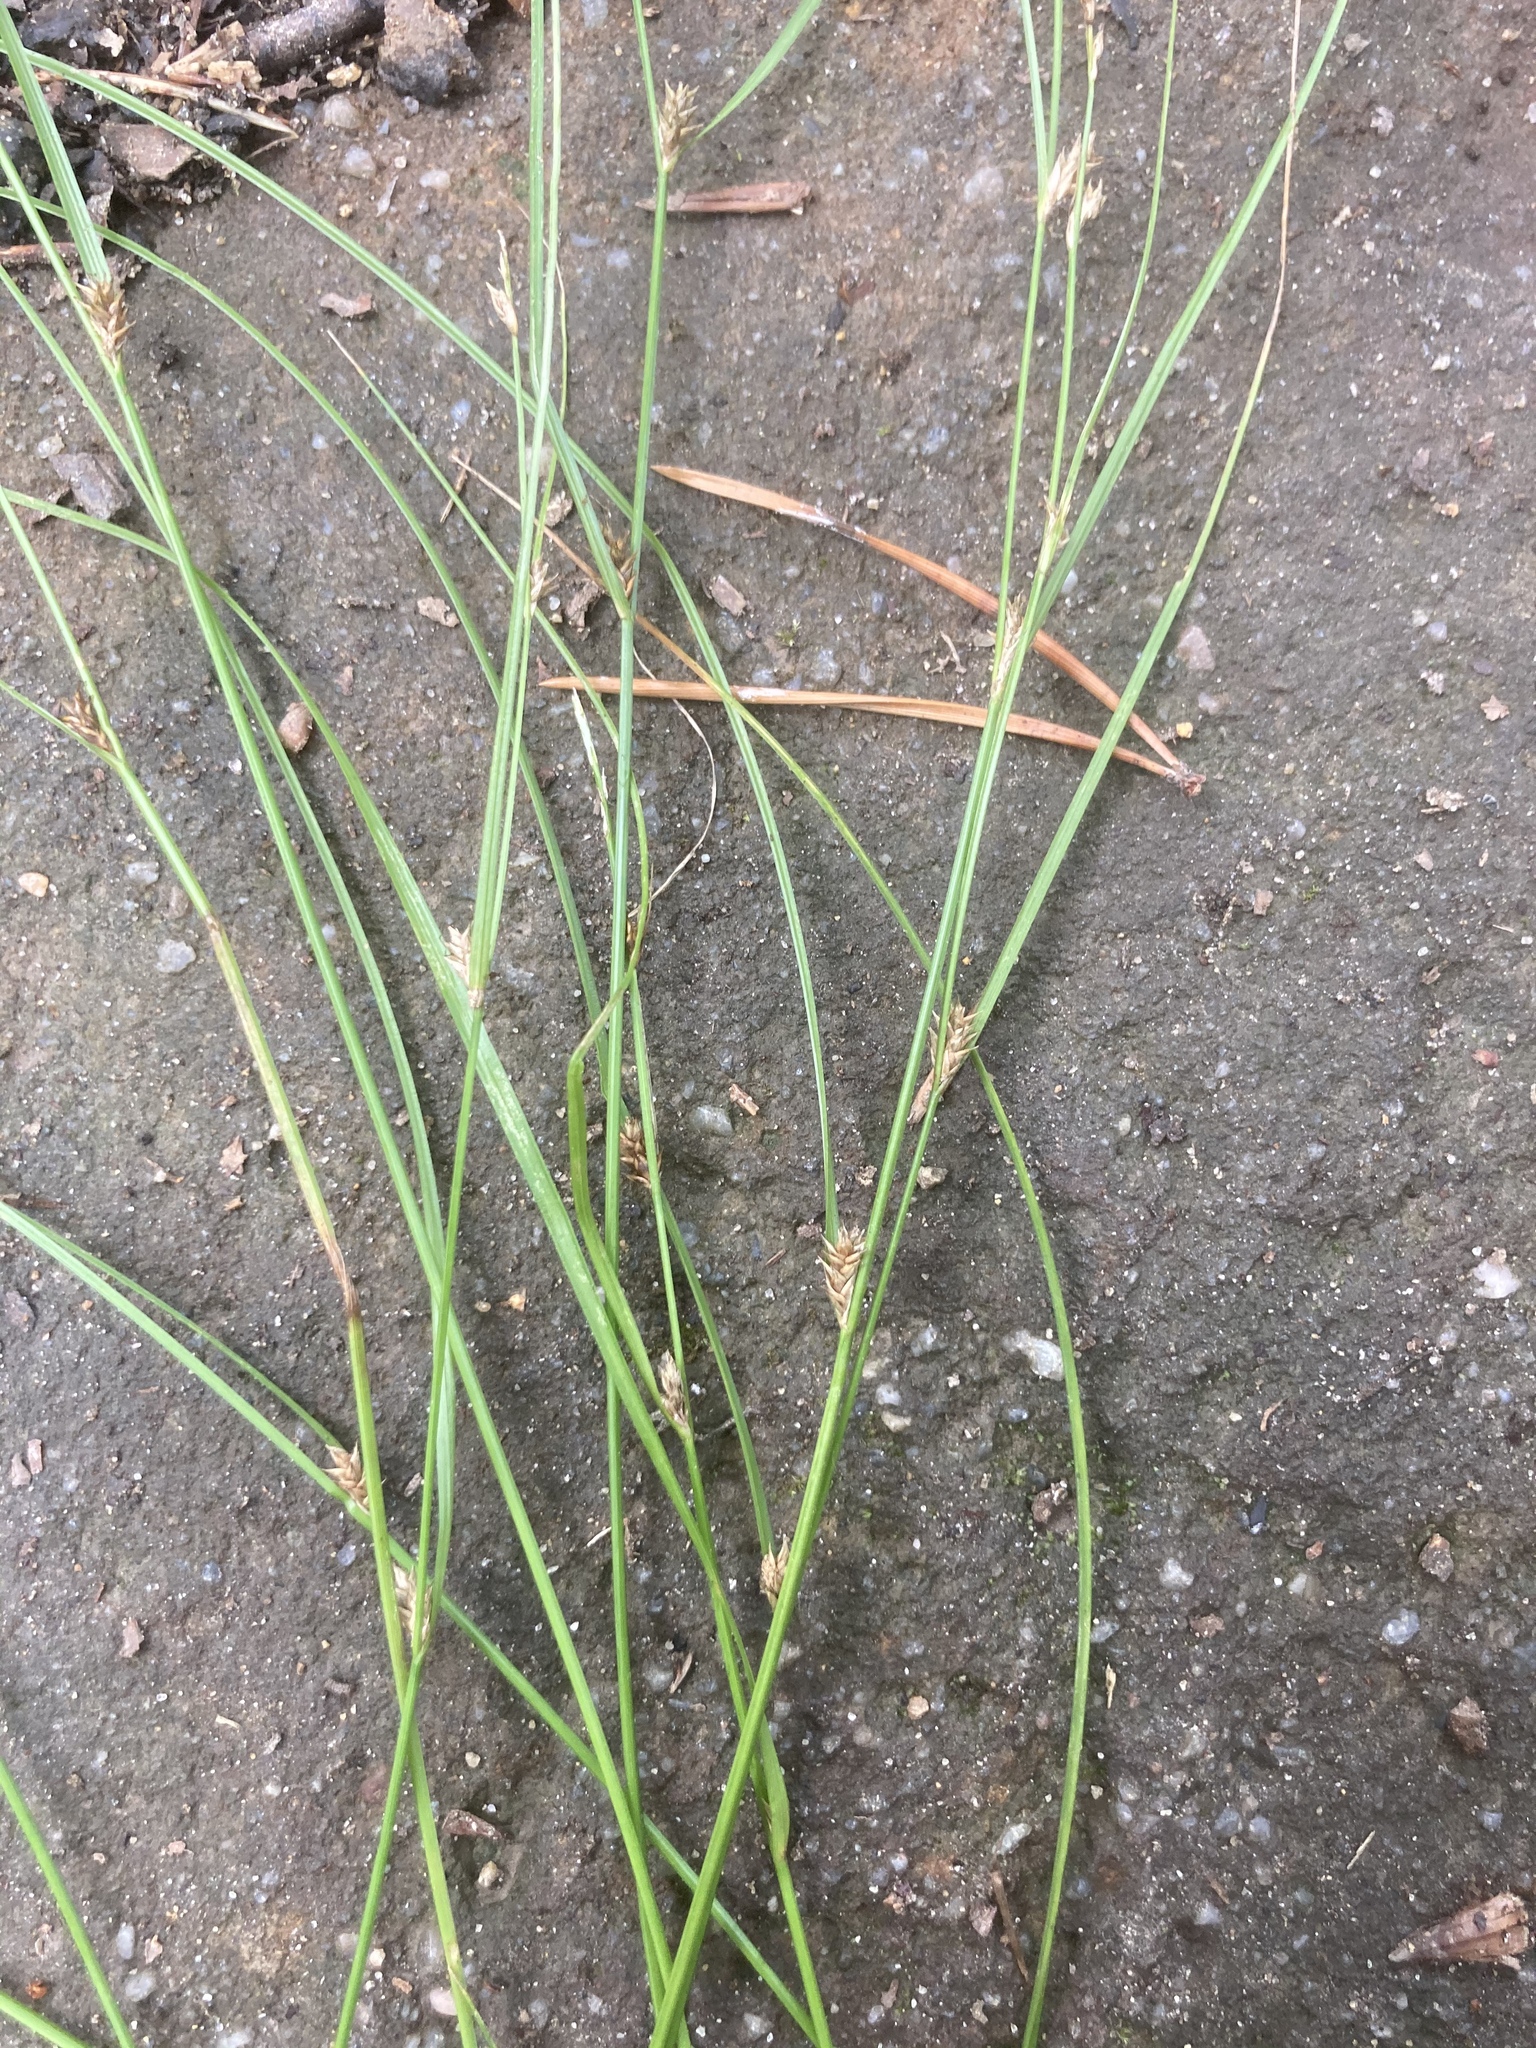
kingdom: Plantae
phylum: Tracheophyta
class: Liliopsida
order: Poales
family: Cyperaceae
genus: Carex
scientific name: Carex remota
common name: Remote sedge
